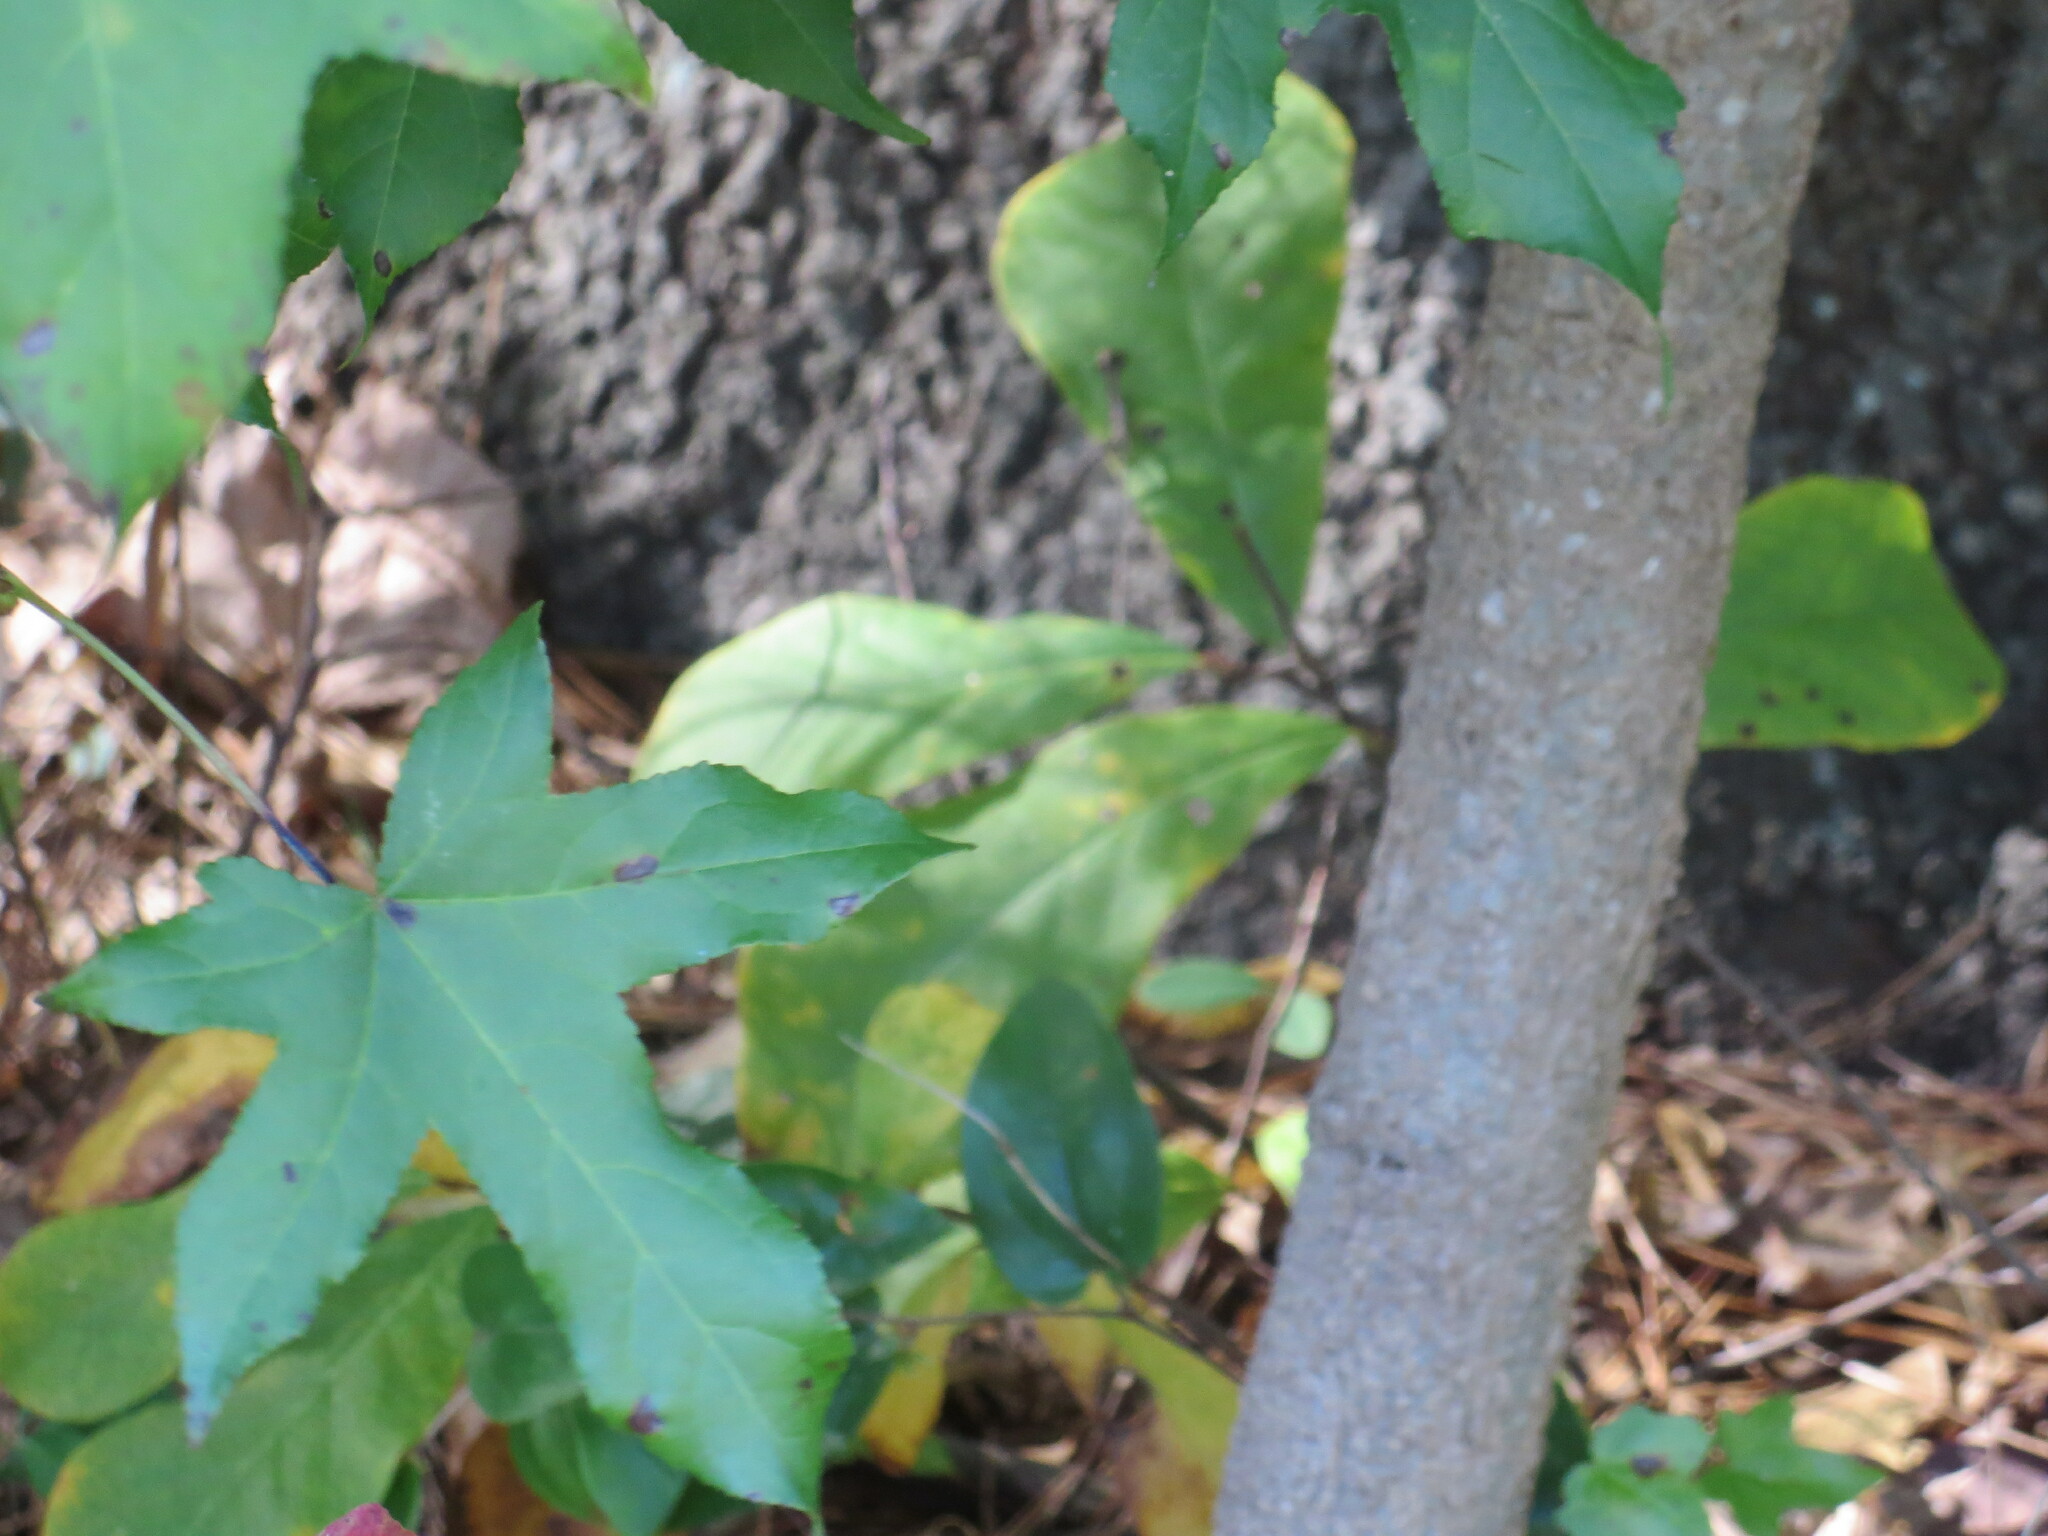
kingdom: Plantae
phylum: Tracheophyta
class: Magnoliopsida
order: Saxifragales
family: Altingiaceae
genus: Liquidambar
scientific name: Liquidambar styraciflua
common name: Sweet gum
